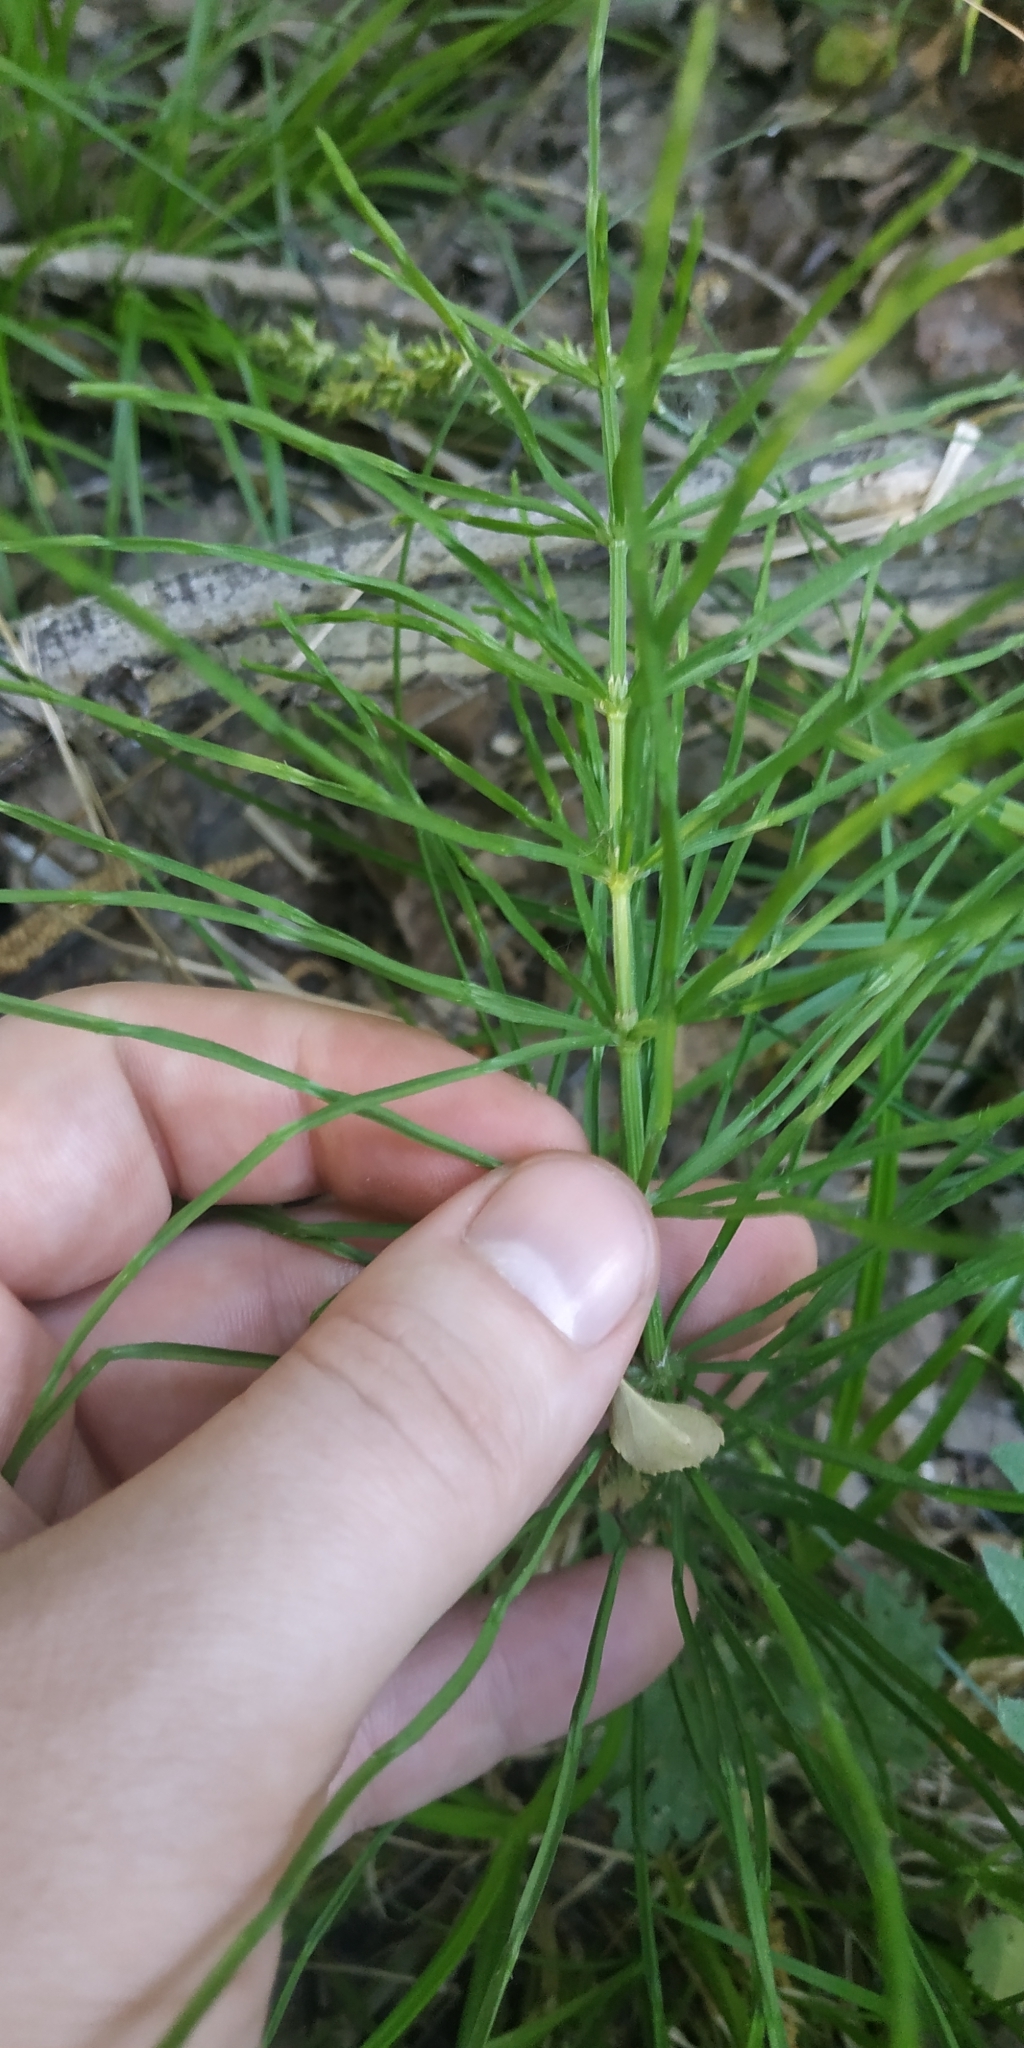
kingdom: Plantae
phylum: Tracheophyta
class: Polypodiopsida
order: Equisetales
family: Equisetaceae
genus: Equisetum
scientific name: Equisetum arvense
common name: Field horsetail
